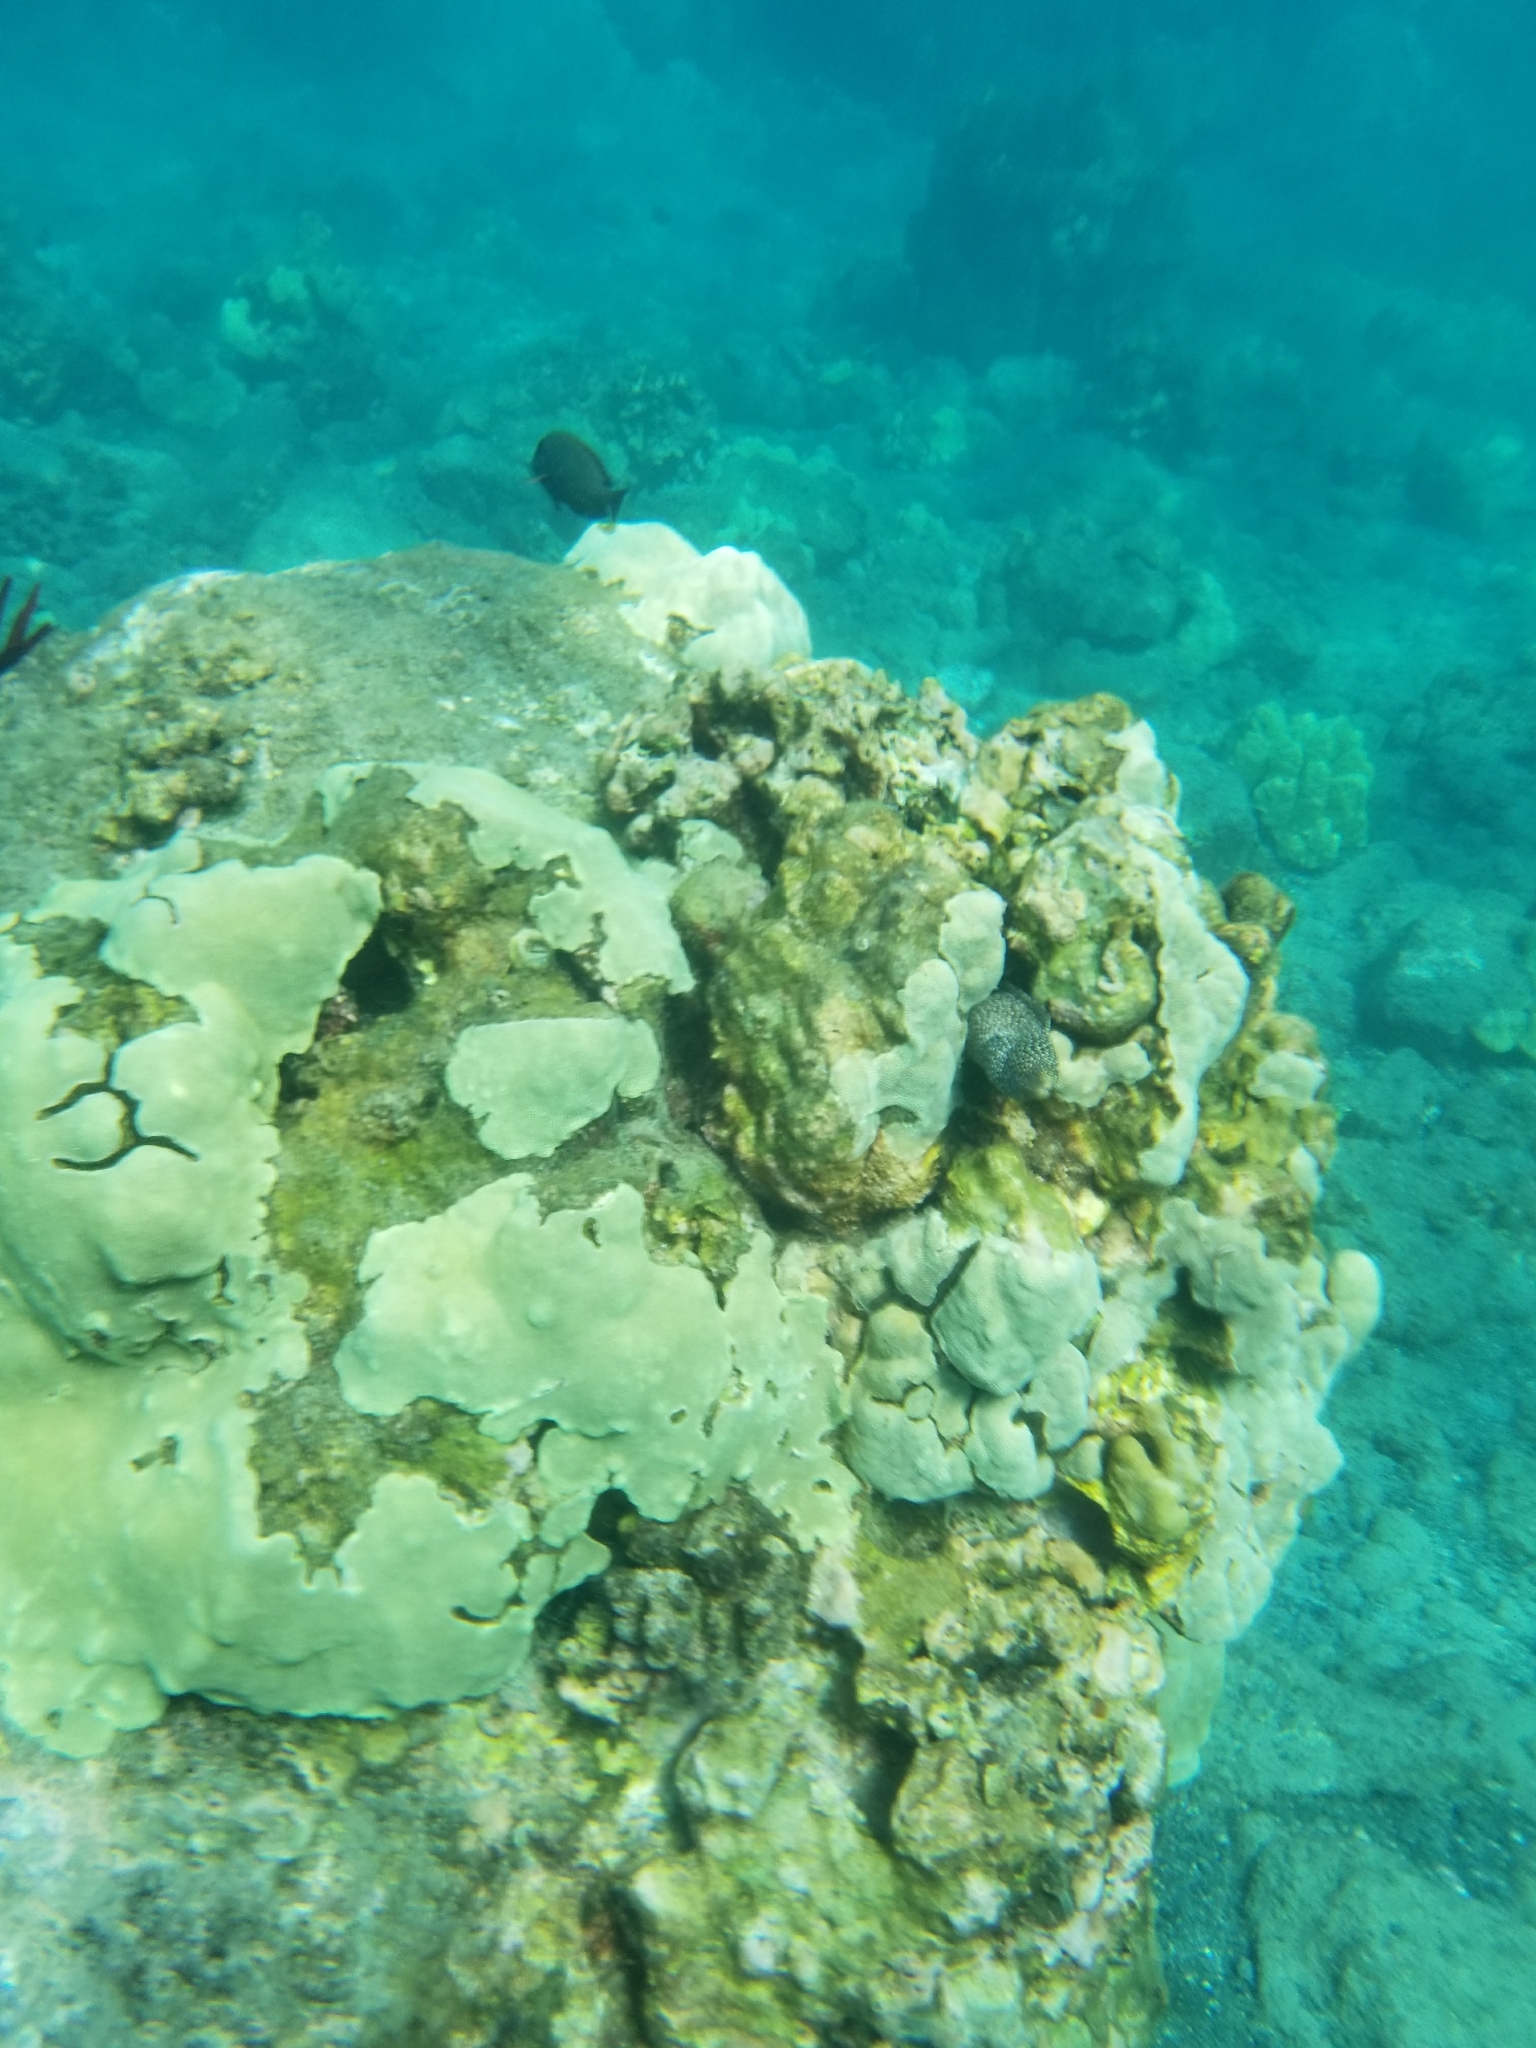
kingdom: Animalia
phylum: Chordata
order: Anguilliformes
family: Muraenidae
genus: Gymnothorax
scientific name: Gymnothorax meleagris
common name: Guineafowl moray
